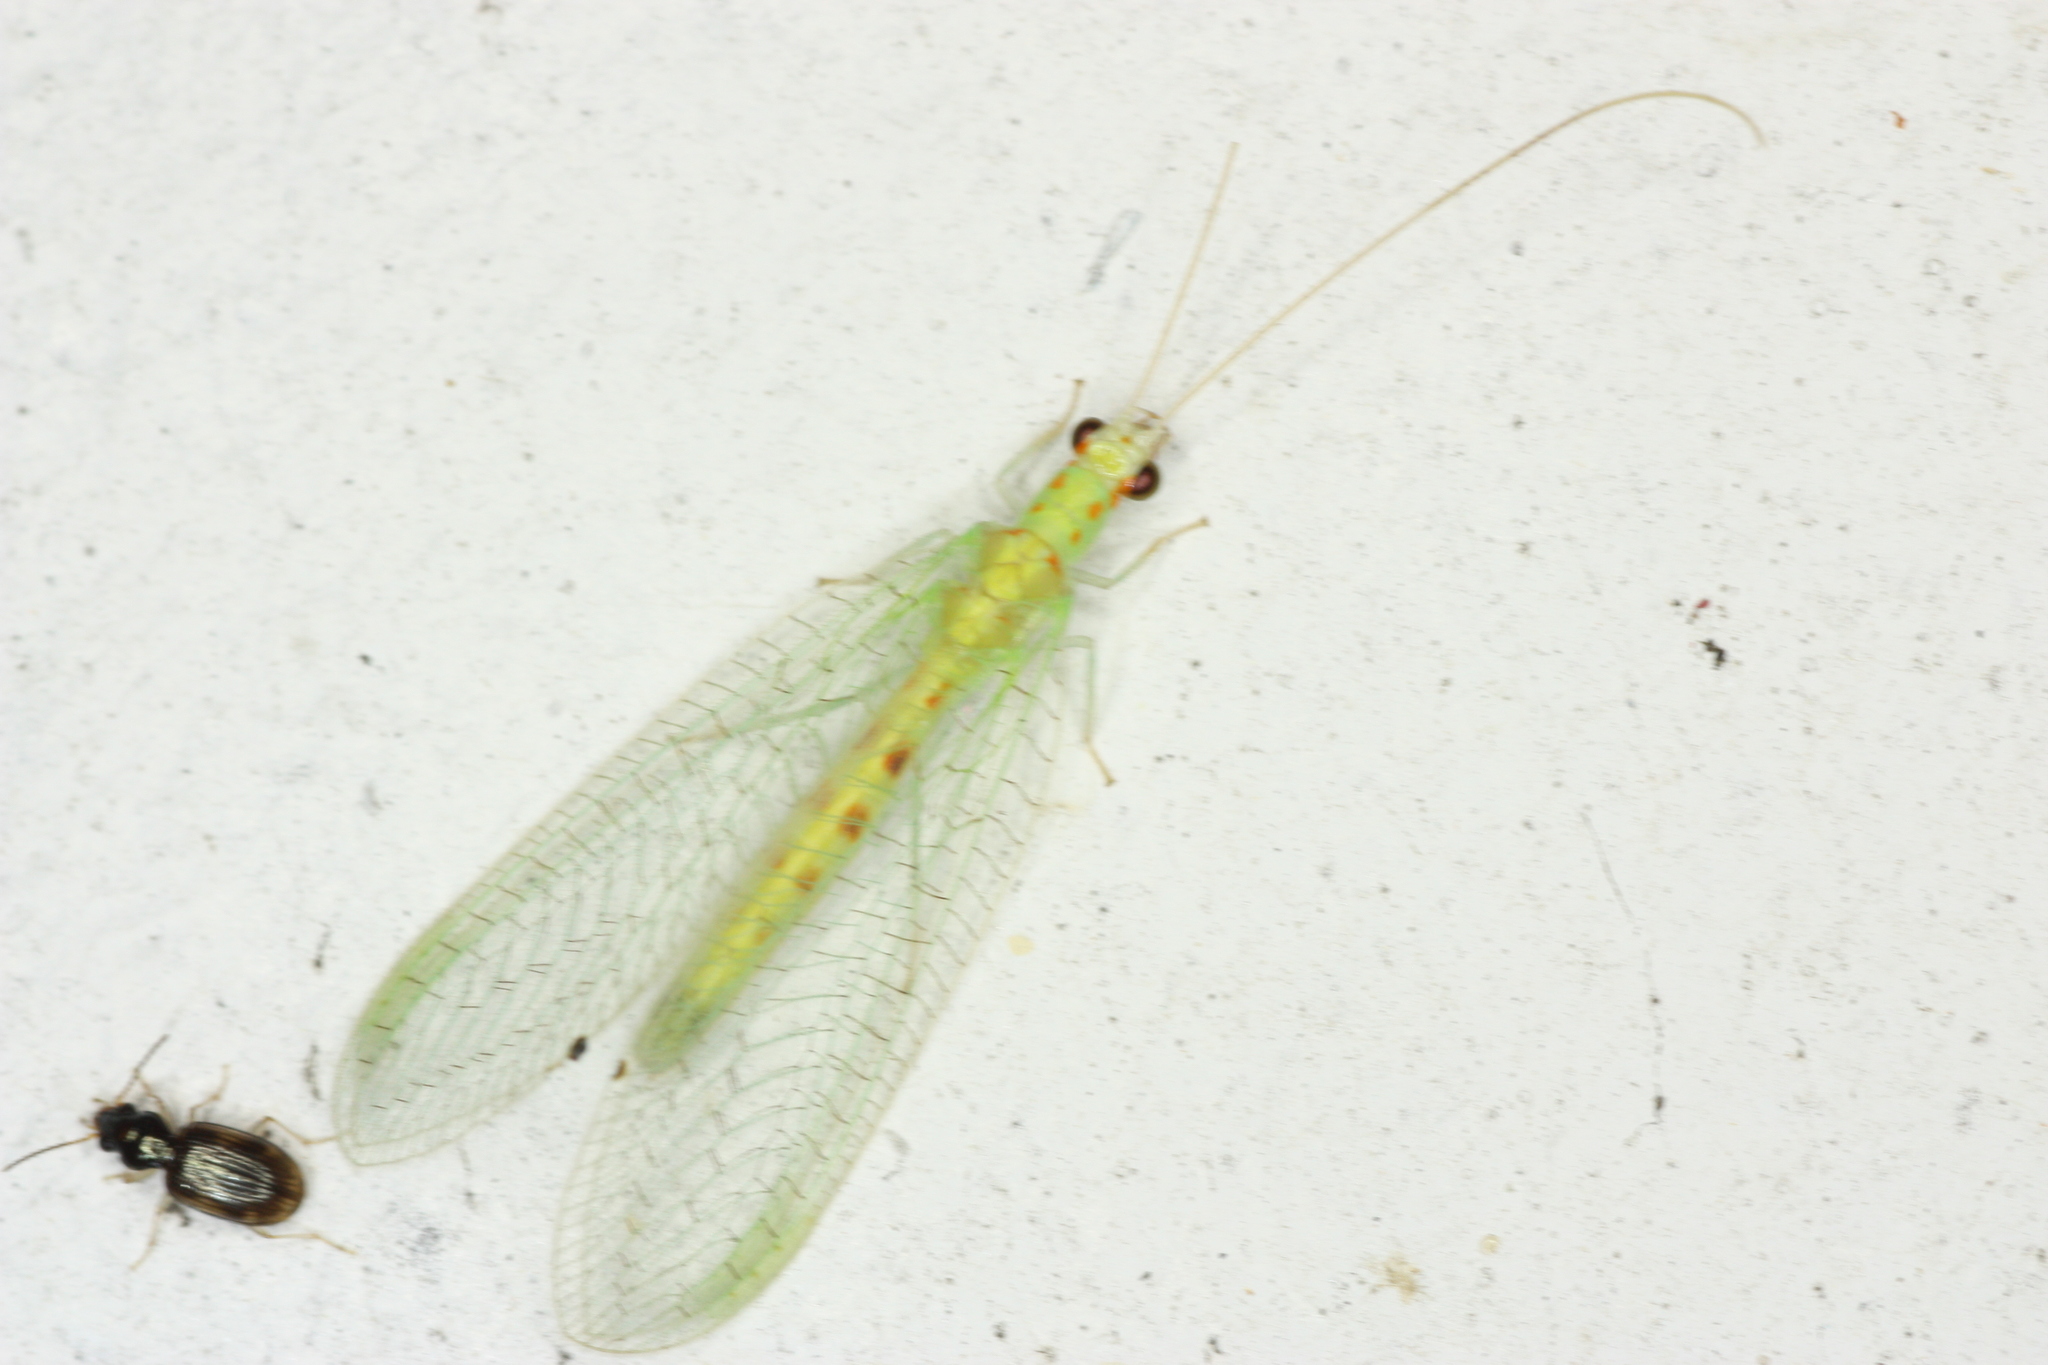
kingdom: Animalia
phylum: Arthropoda
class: Insecta
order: Neuroptera
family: Chrysopidae
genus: Chrysopa
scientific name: Chrysopa quadripunctata
